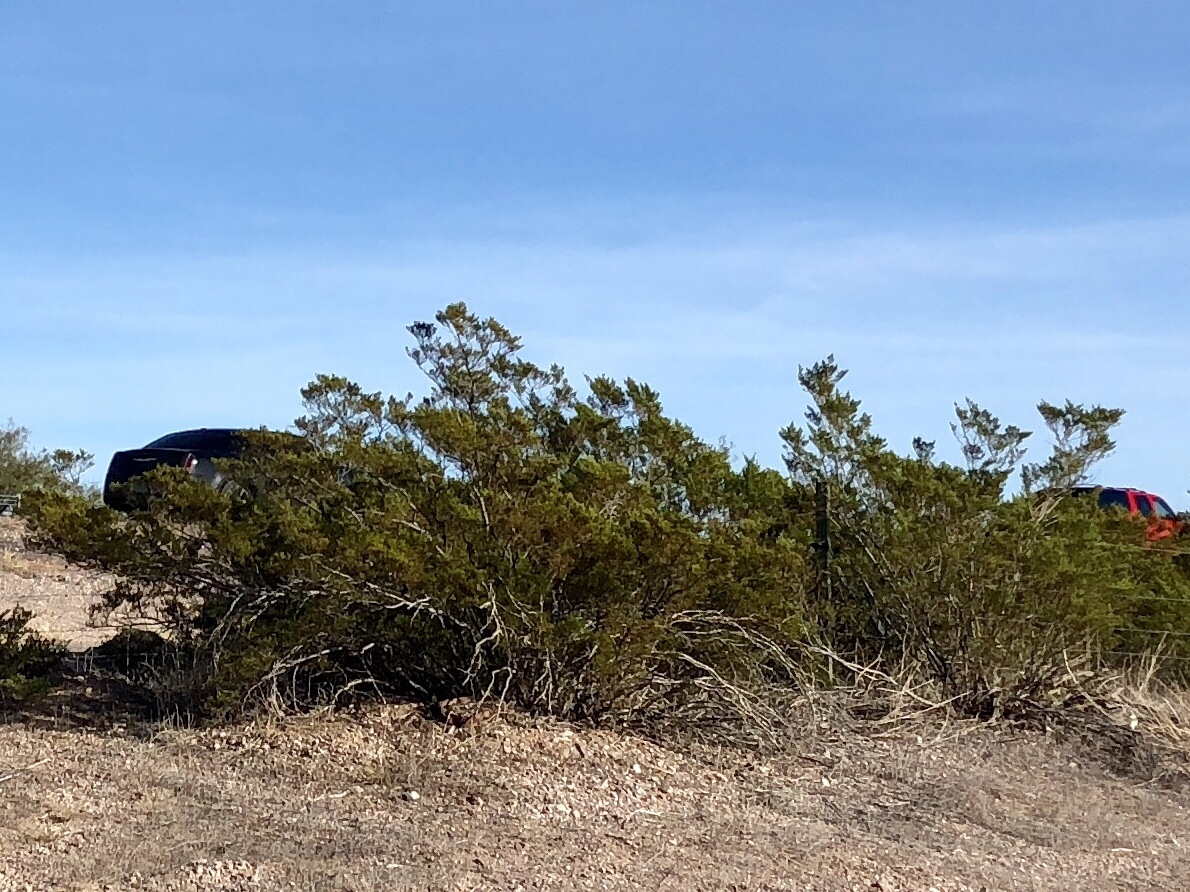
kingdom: Plantae
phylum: Tracheophyta
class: Magnoliopsida
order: Zygophyllales
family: Zygophyllaceae
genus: Larrea
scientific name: Larrea tridentata
